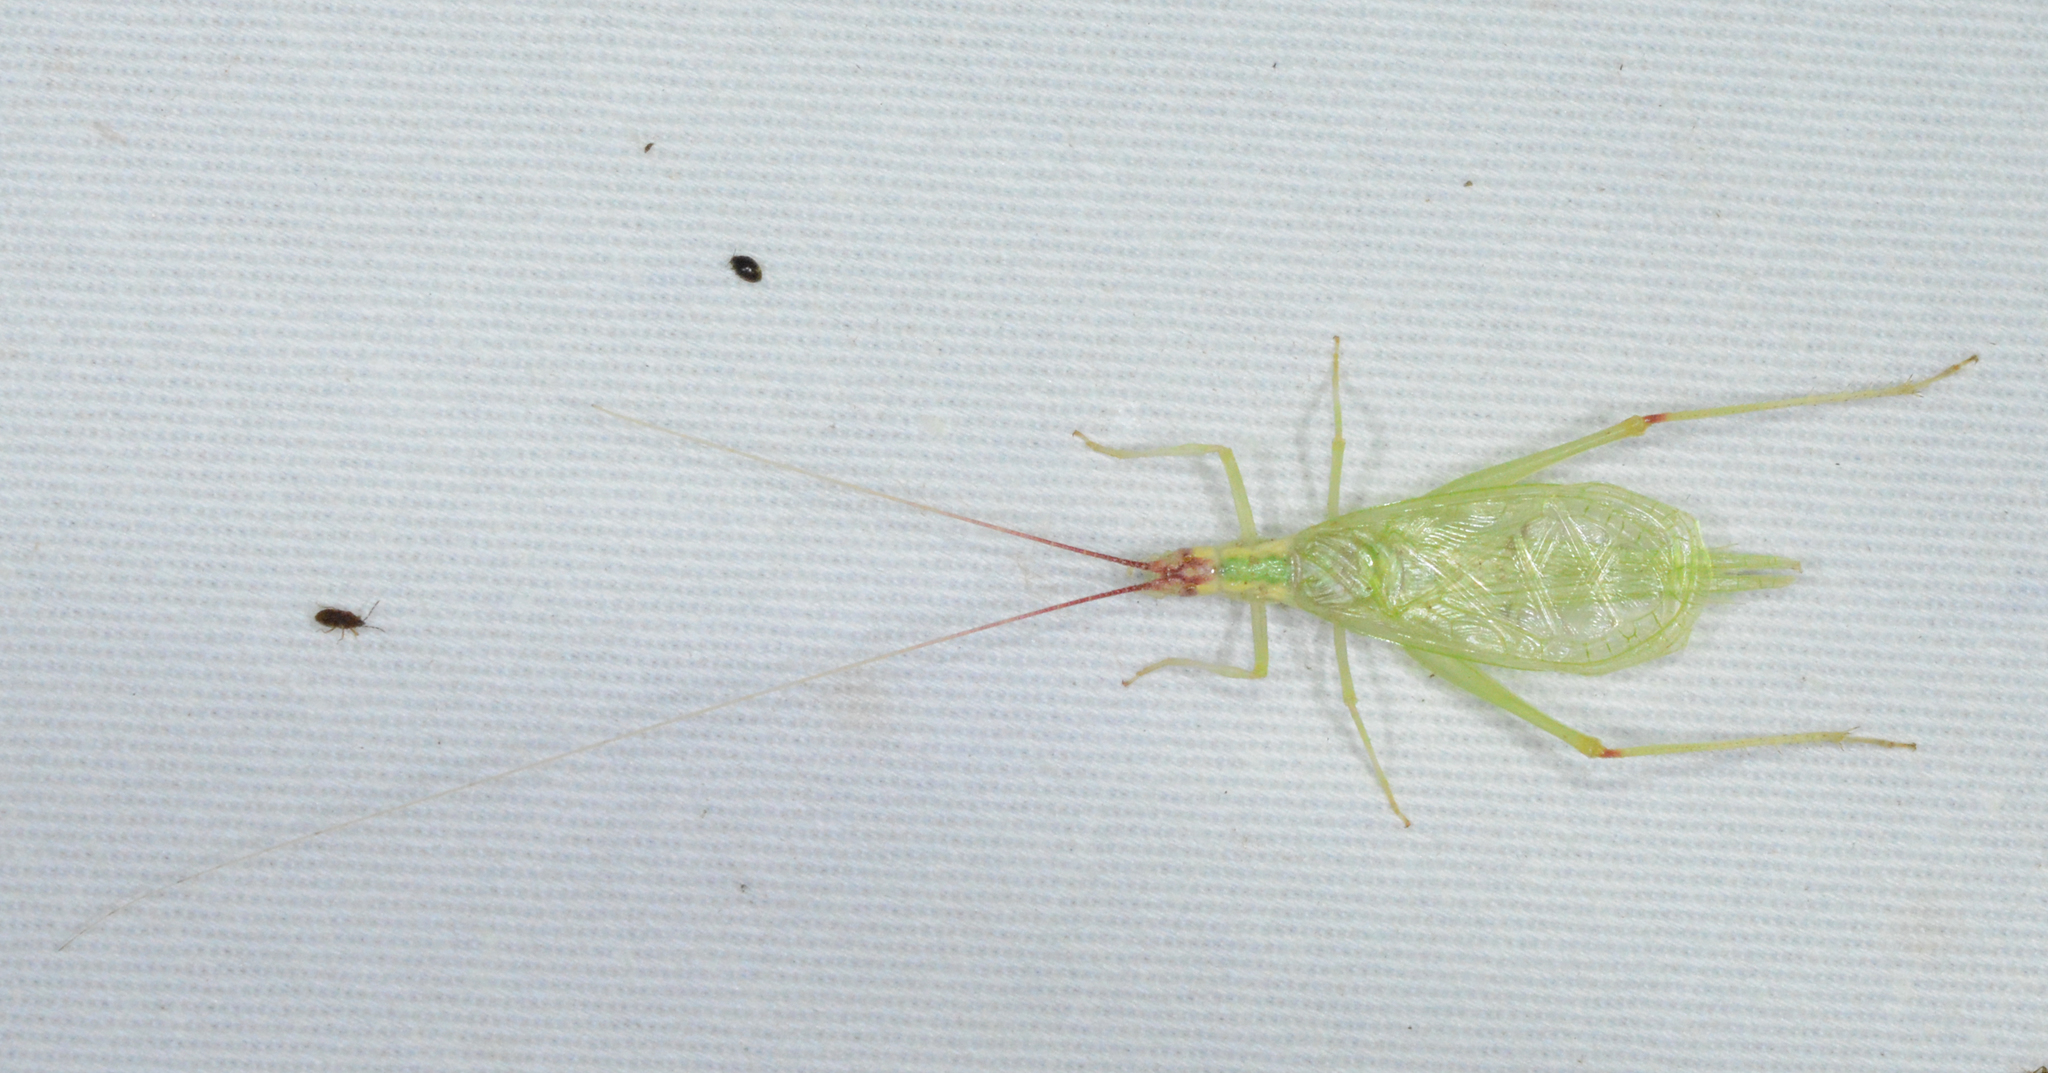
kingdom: Animalia
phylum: Arthropoda
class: Insecta
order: Orthoptera
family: Gryllidae
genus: Oecanthus
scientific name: Oecanthus latipennis
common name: Broad-winged tree cricket
